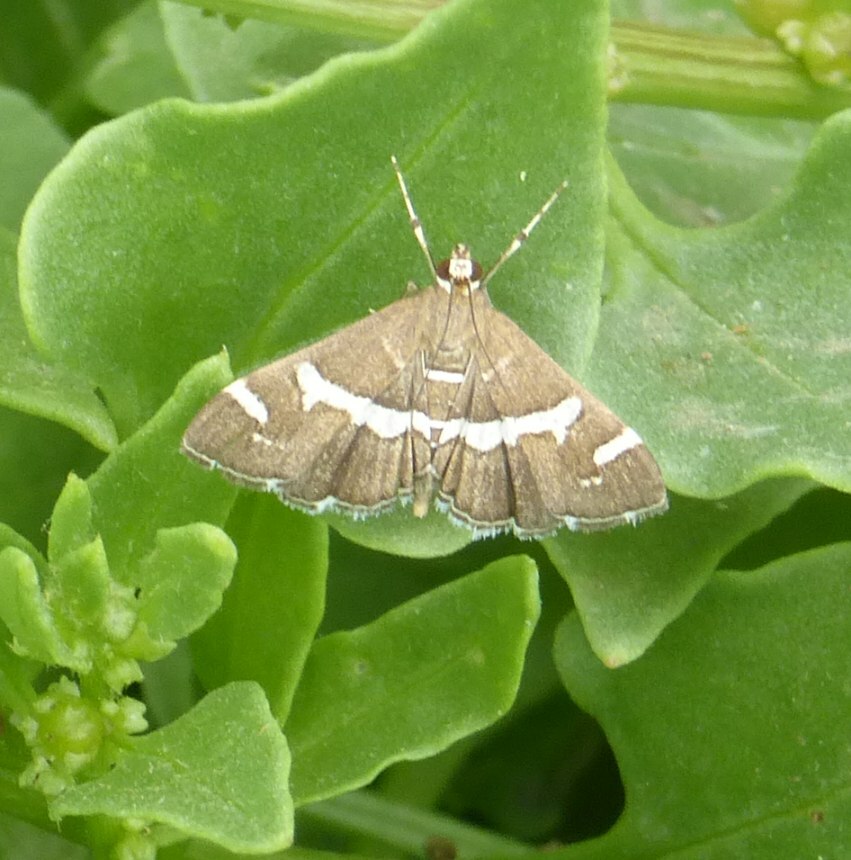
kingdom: Animalia
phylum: Arthropoda
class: Insecta
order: Lepidoptera
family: Crambidae
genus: Spoladea
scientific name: Spoladea recurvalis
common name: Beet webworm moth
